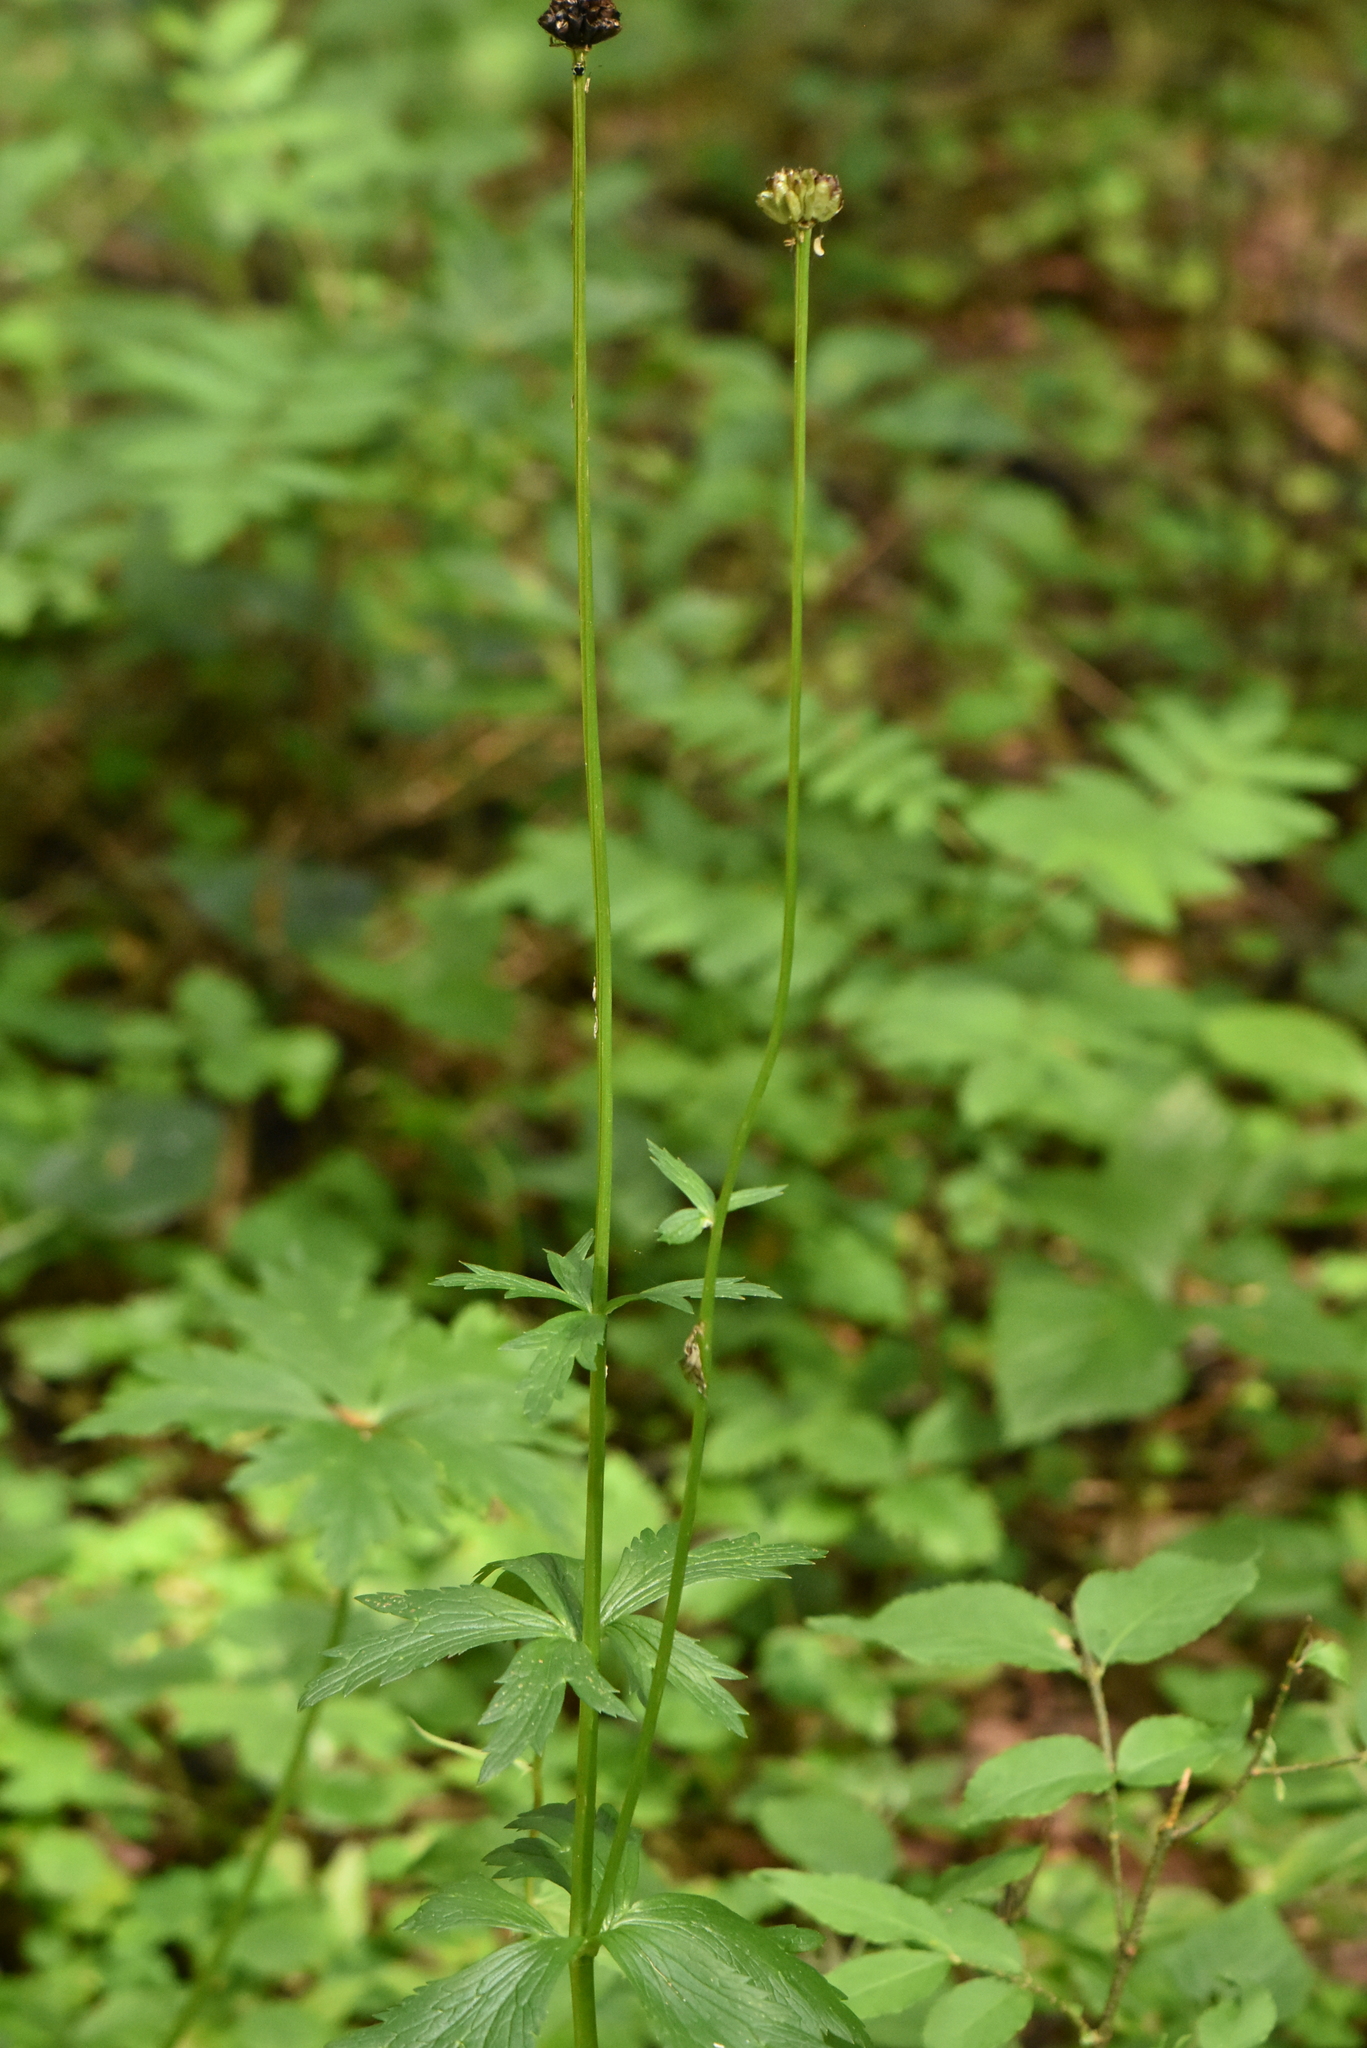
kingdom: Plantae
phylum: Tracheophyta
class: Magnoliopsida
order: Ranunculales
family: Ranunculaceae
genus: Trollius
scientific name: Trollius europaeus
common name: European globeflower
